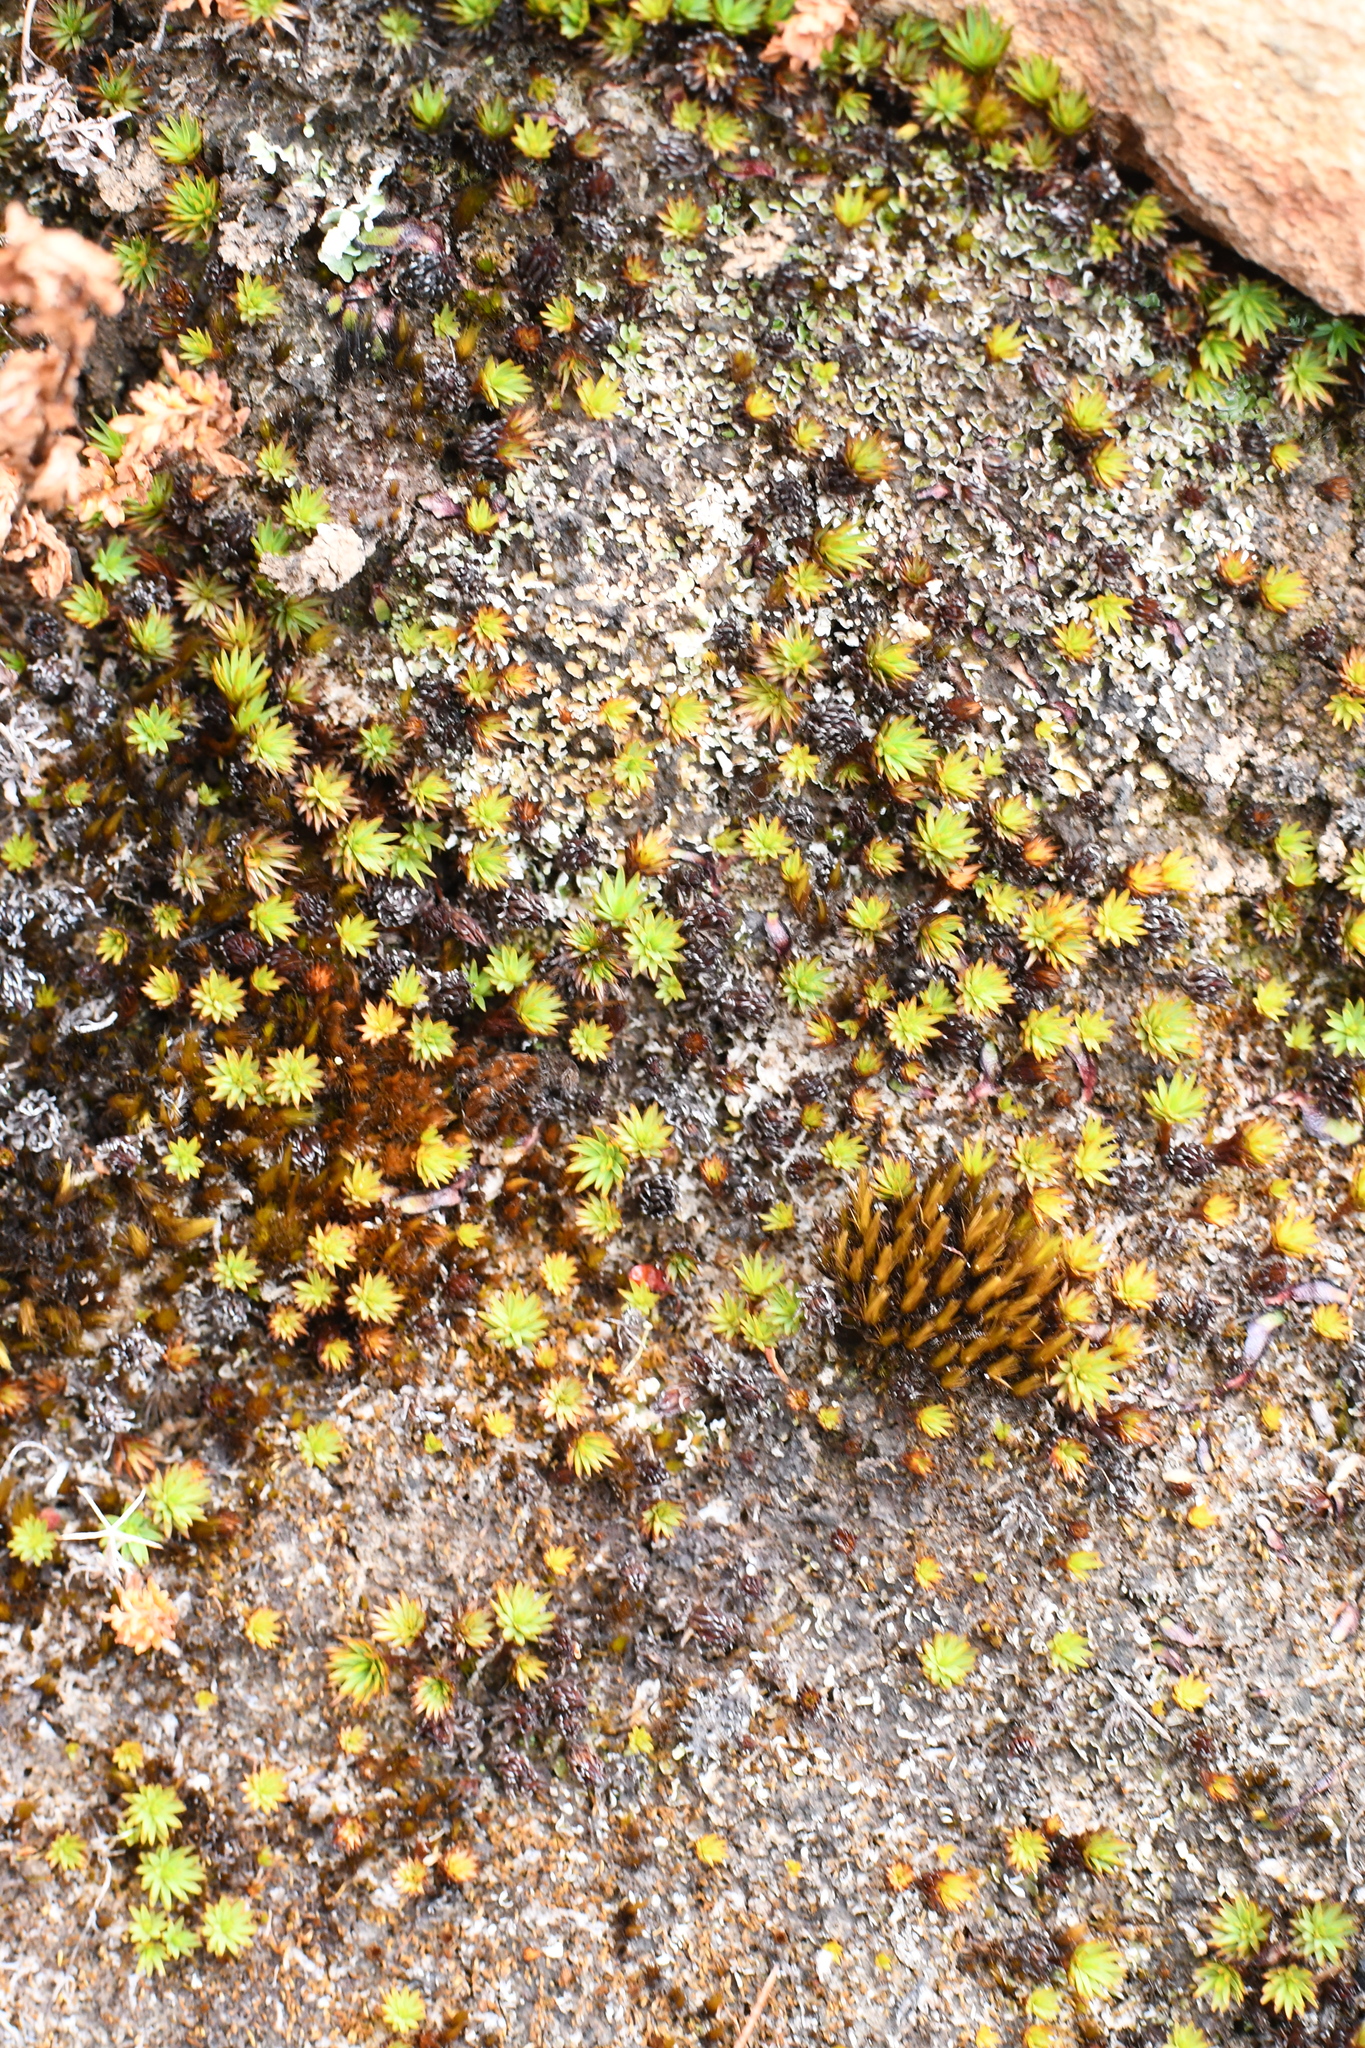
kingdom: Plantae
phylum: Bryophyta
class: Polytrichopsida
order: Polytrichales
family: Polytrichaceae
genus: Dawsonia
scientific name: Dawsonia longiseta
